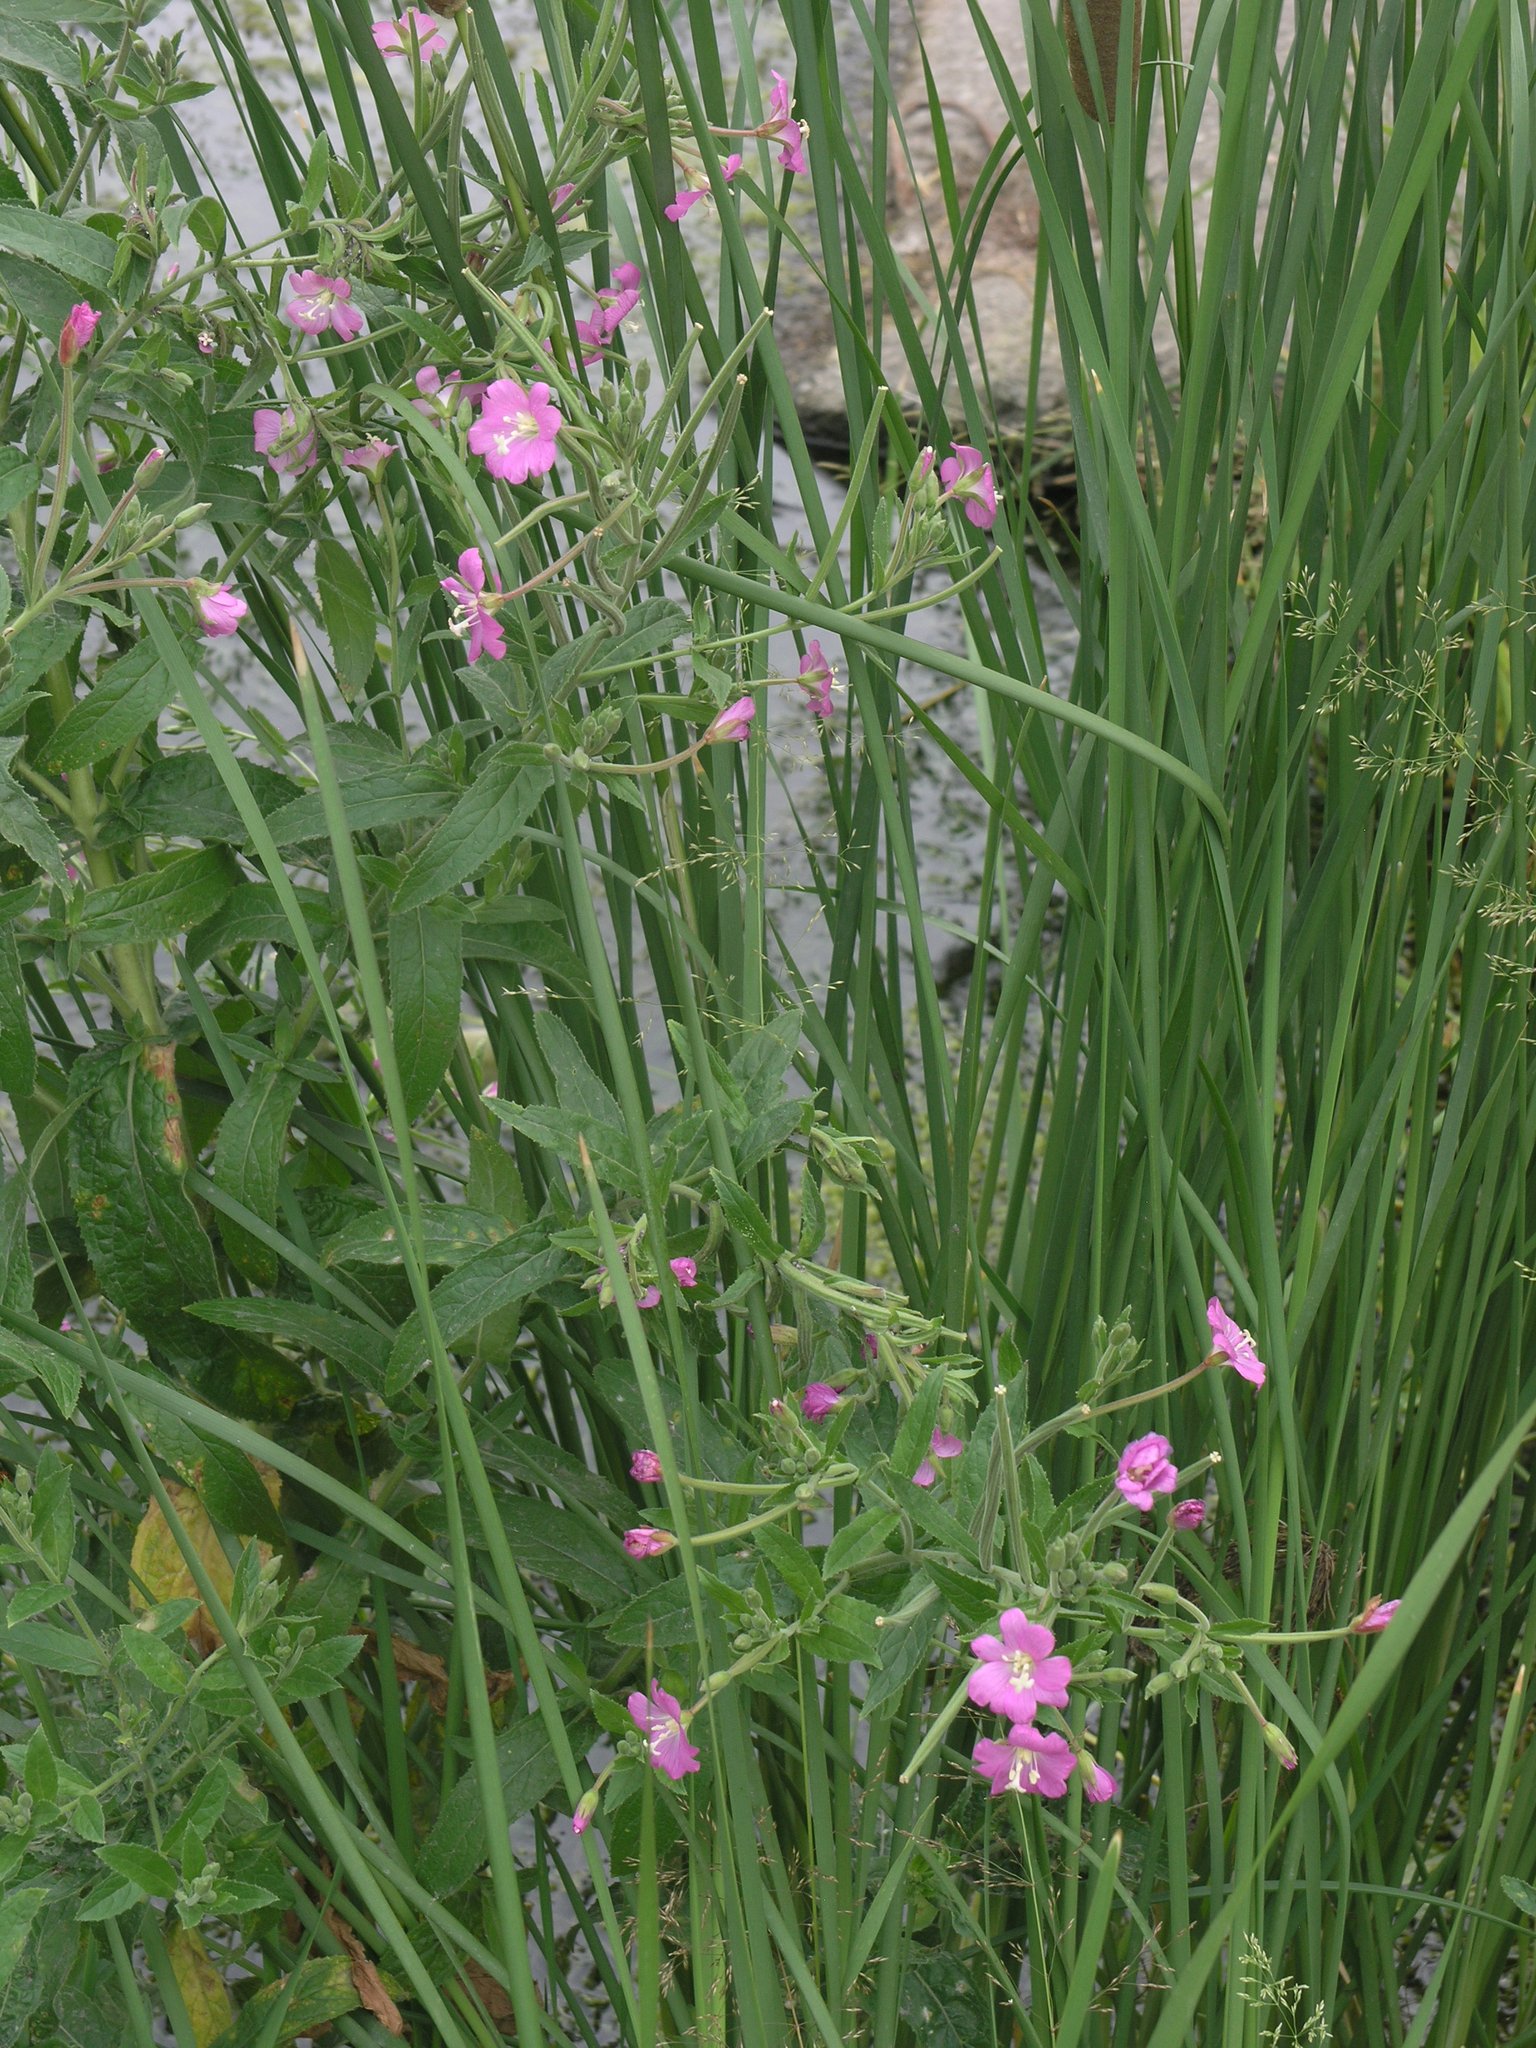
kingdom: Plantae
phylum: Tracheophyta
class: Magnoliopsida
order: Myrtales
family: Onagraceae
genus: Epilobium
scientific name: Epilobium hirsutum
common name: Great willowherb
